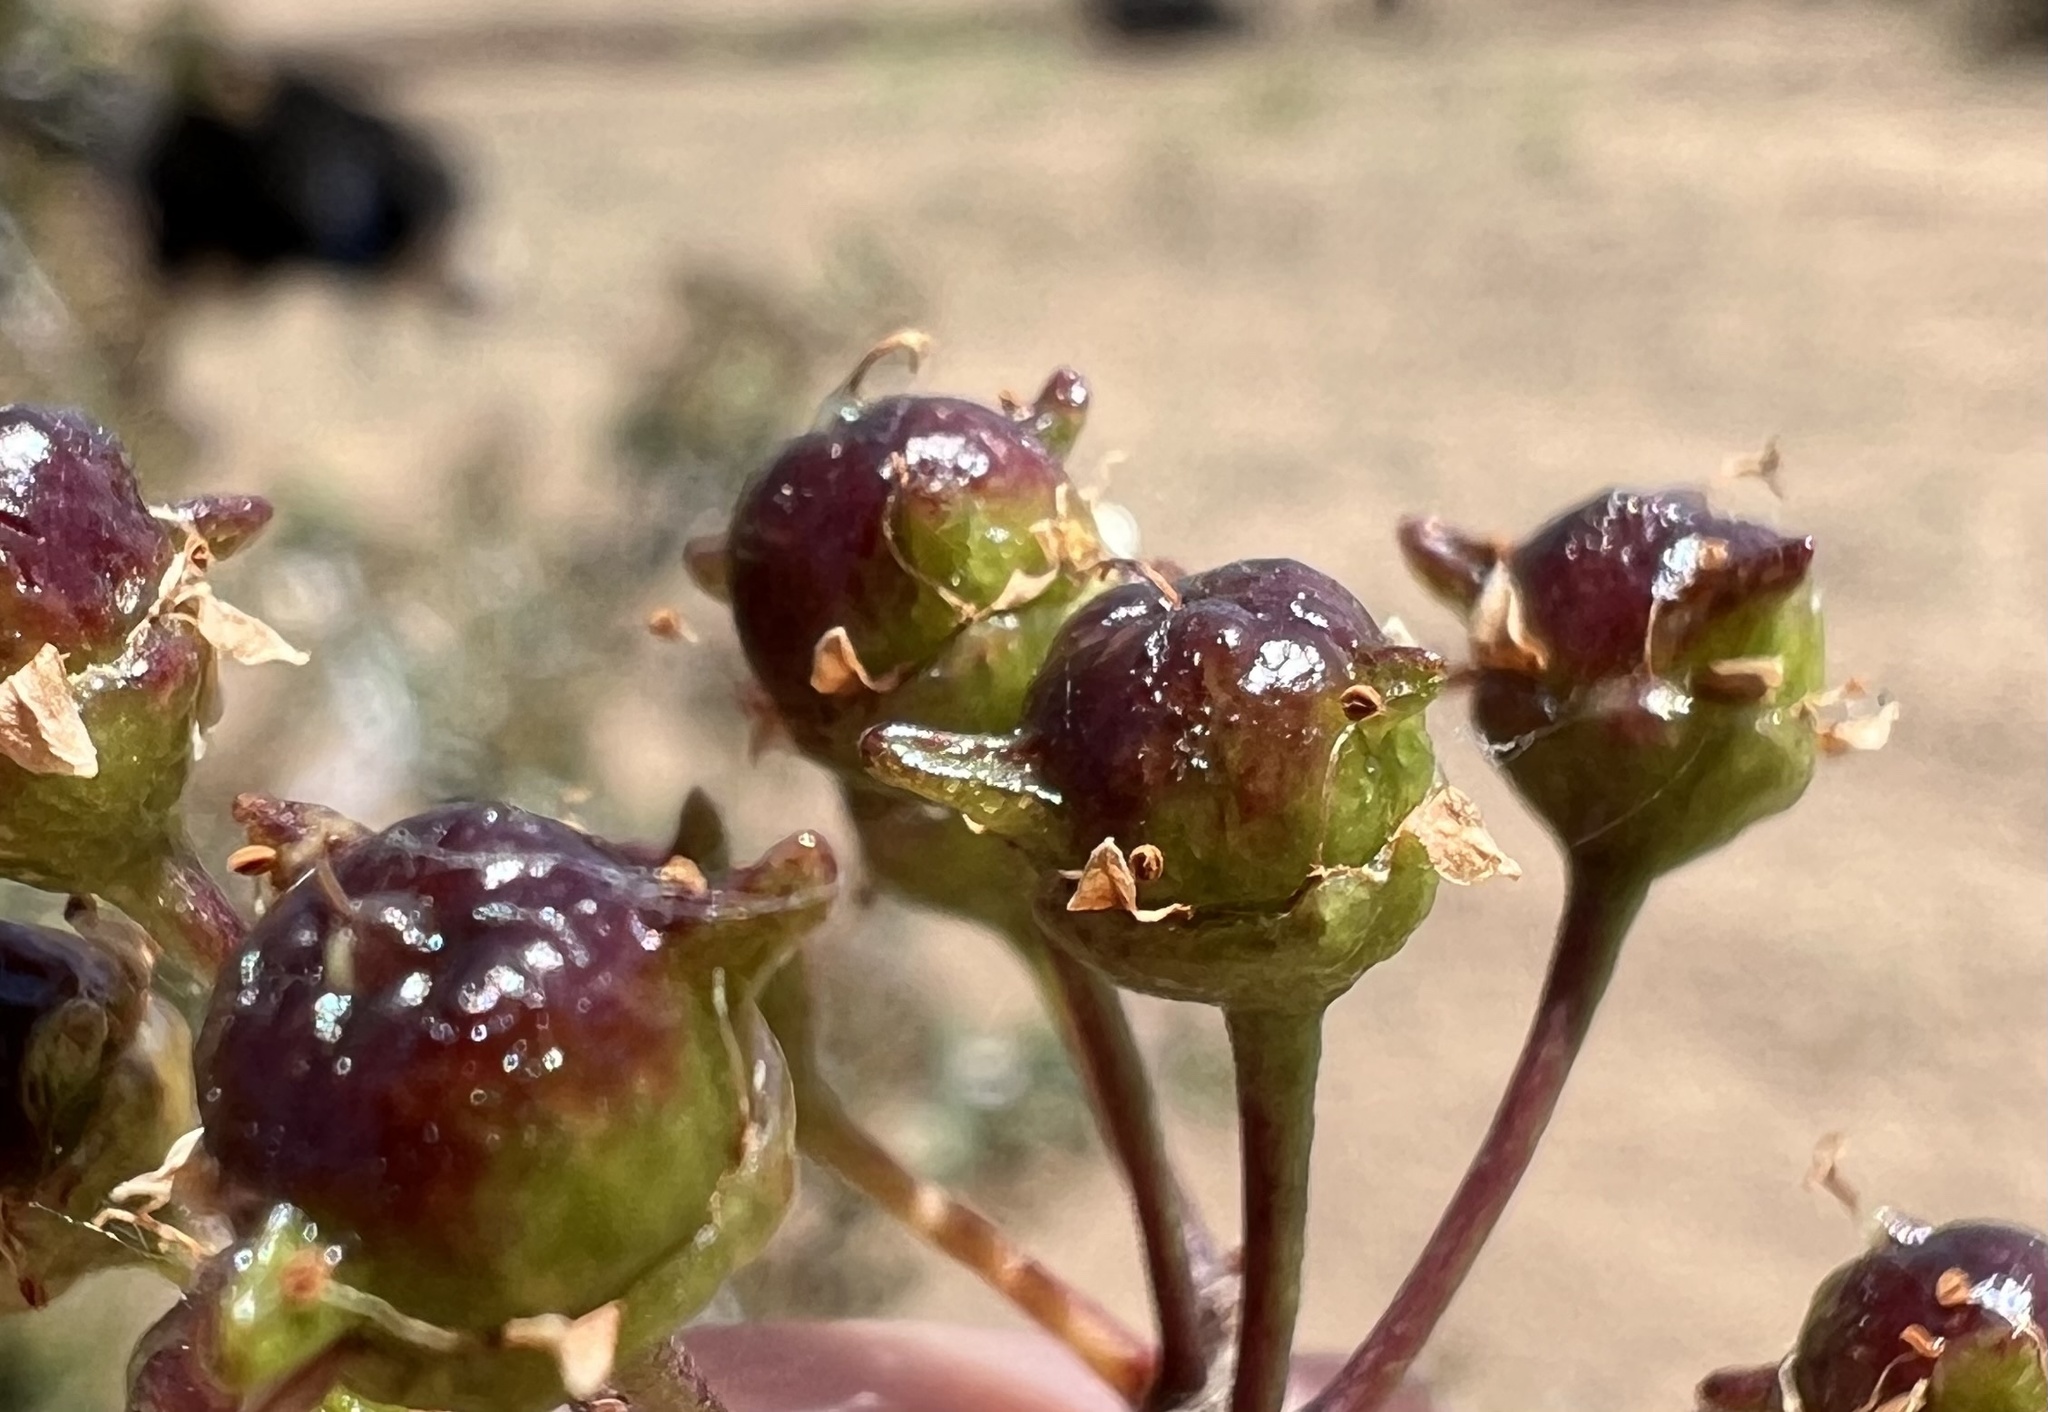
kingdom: Plantae
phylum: Tracheophyta
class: Magnoliopsida
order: Rosales
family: Rhamnaceae
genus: Ceanothus
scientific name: Ceanothus pauciflorus
